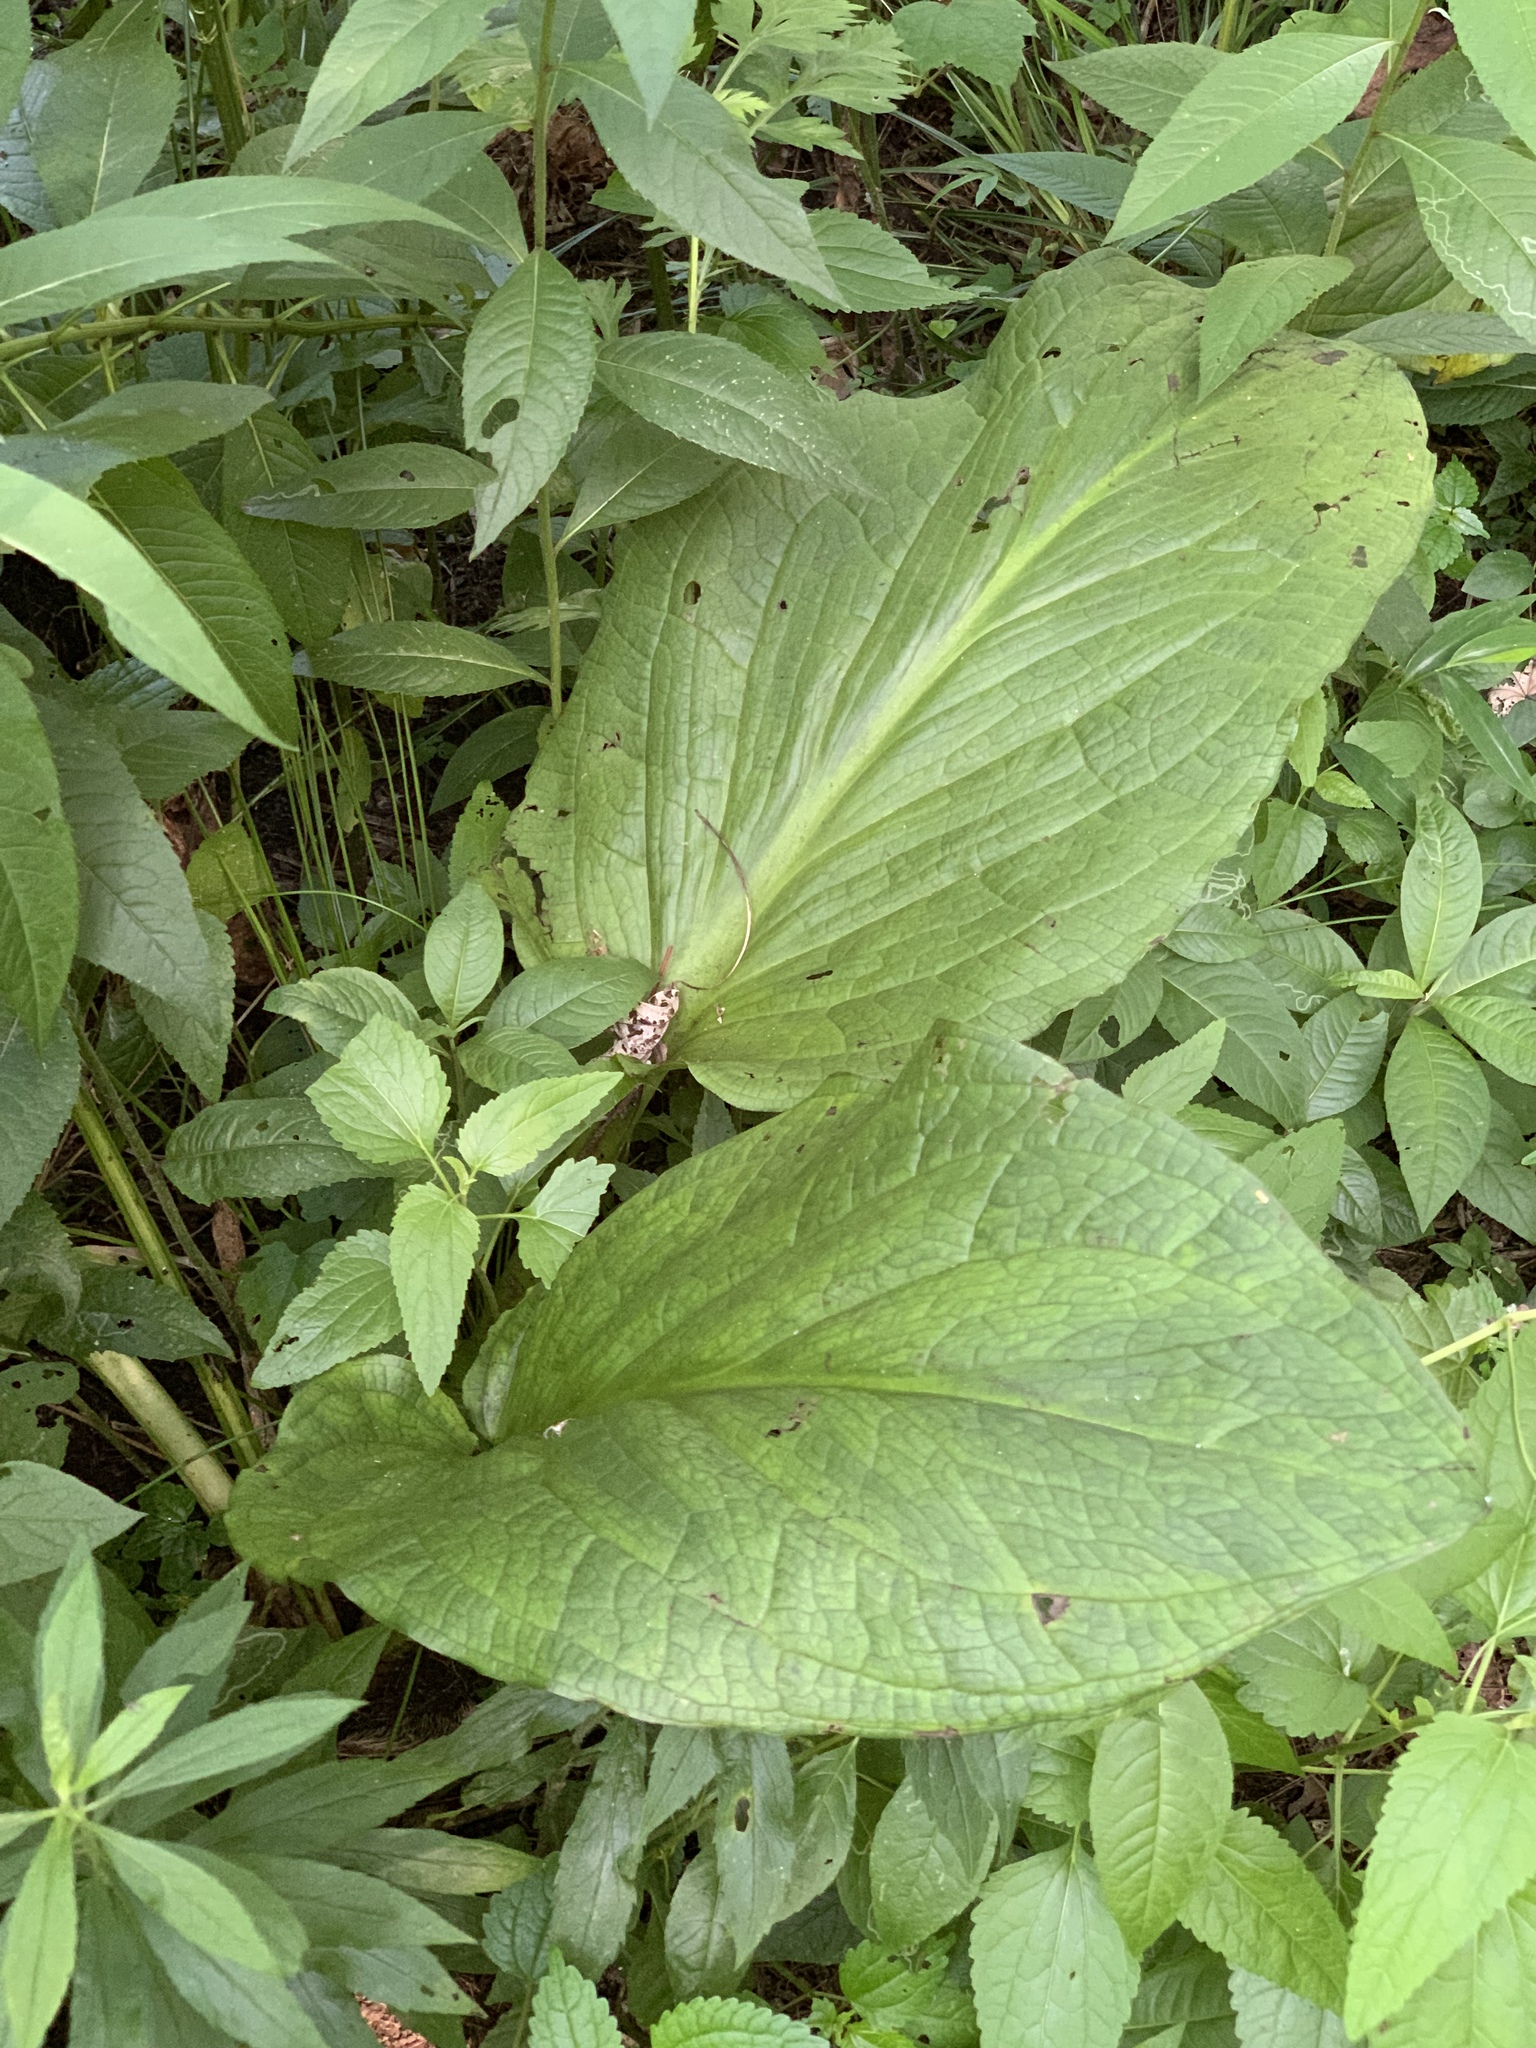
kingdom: Plantae
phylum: Tracheophyta
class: Liliopsida
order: Alismatales
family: Araceae
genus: Symplocarpus
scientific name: Symplocarpus foetidus
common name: Eastern skunk cabbage
